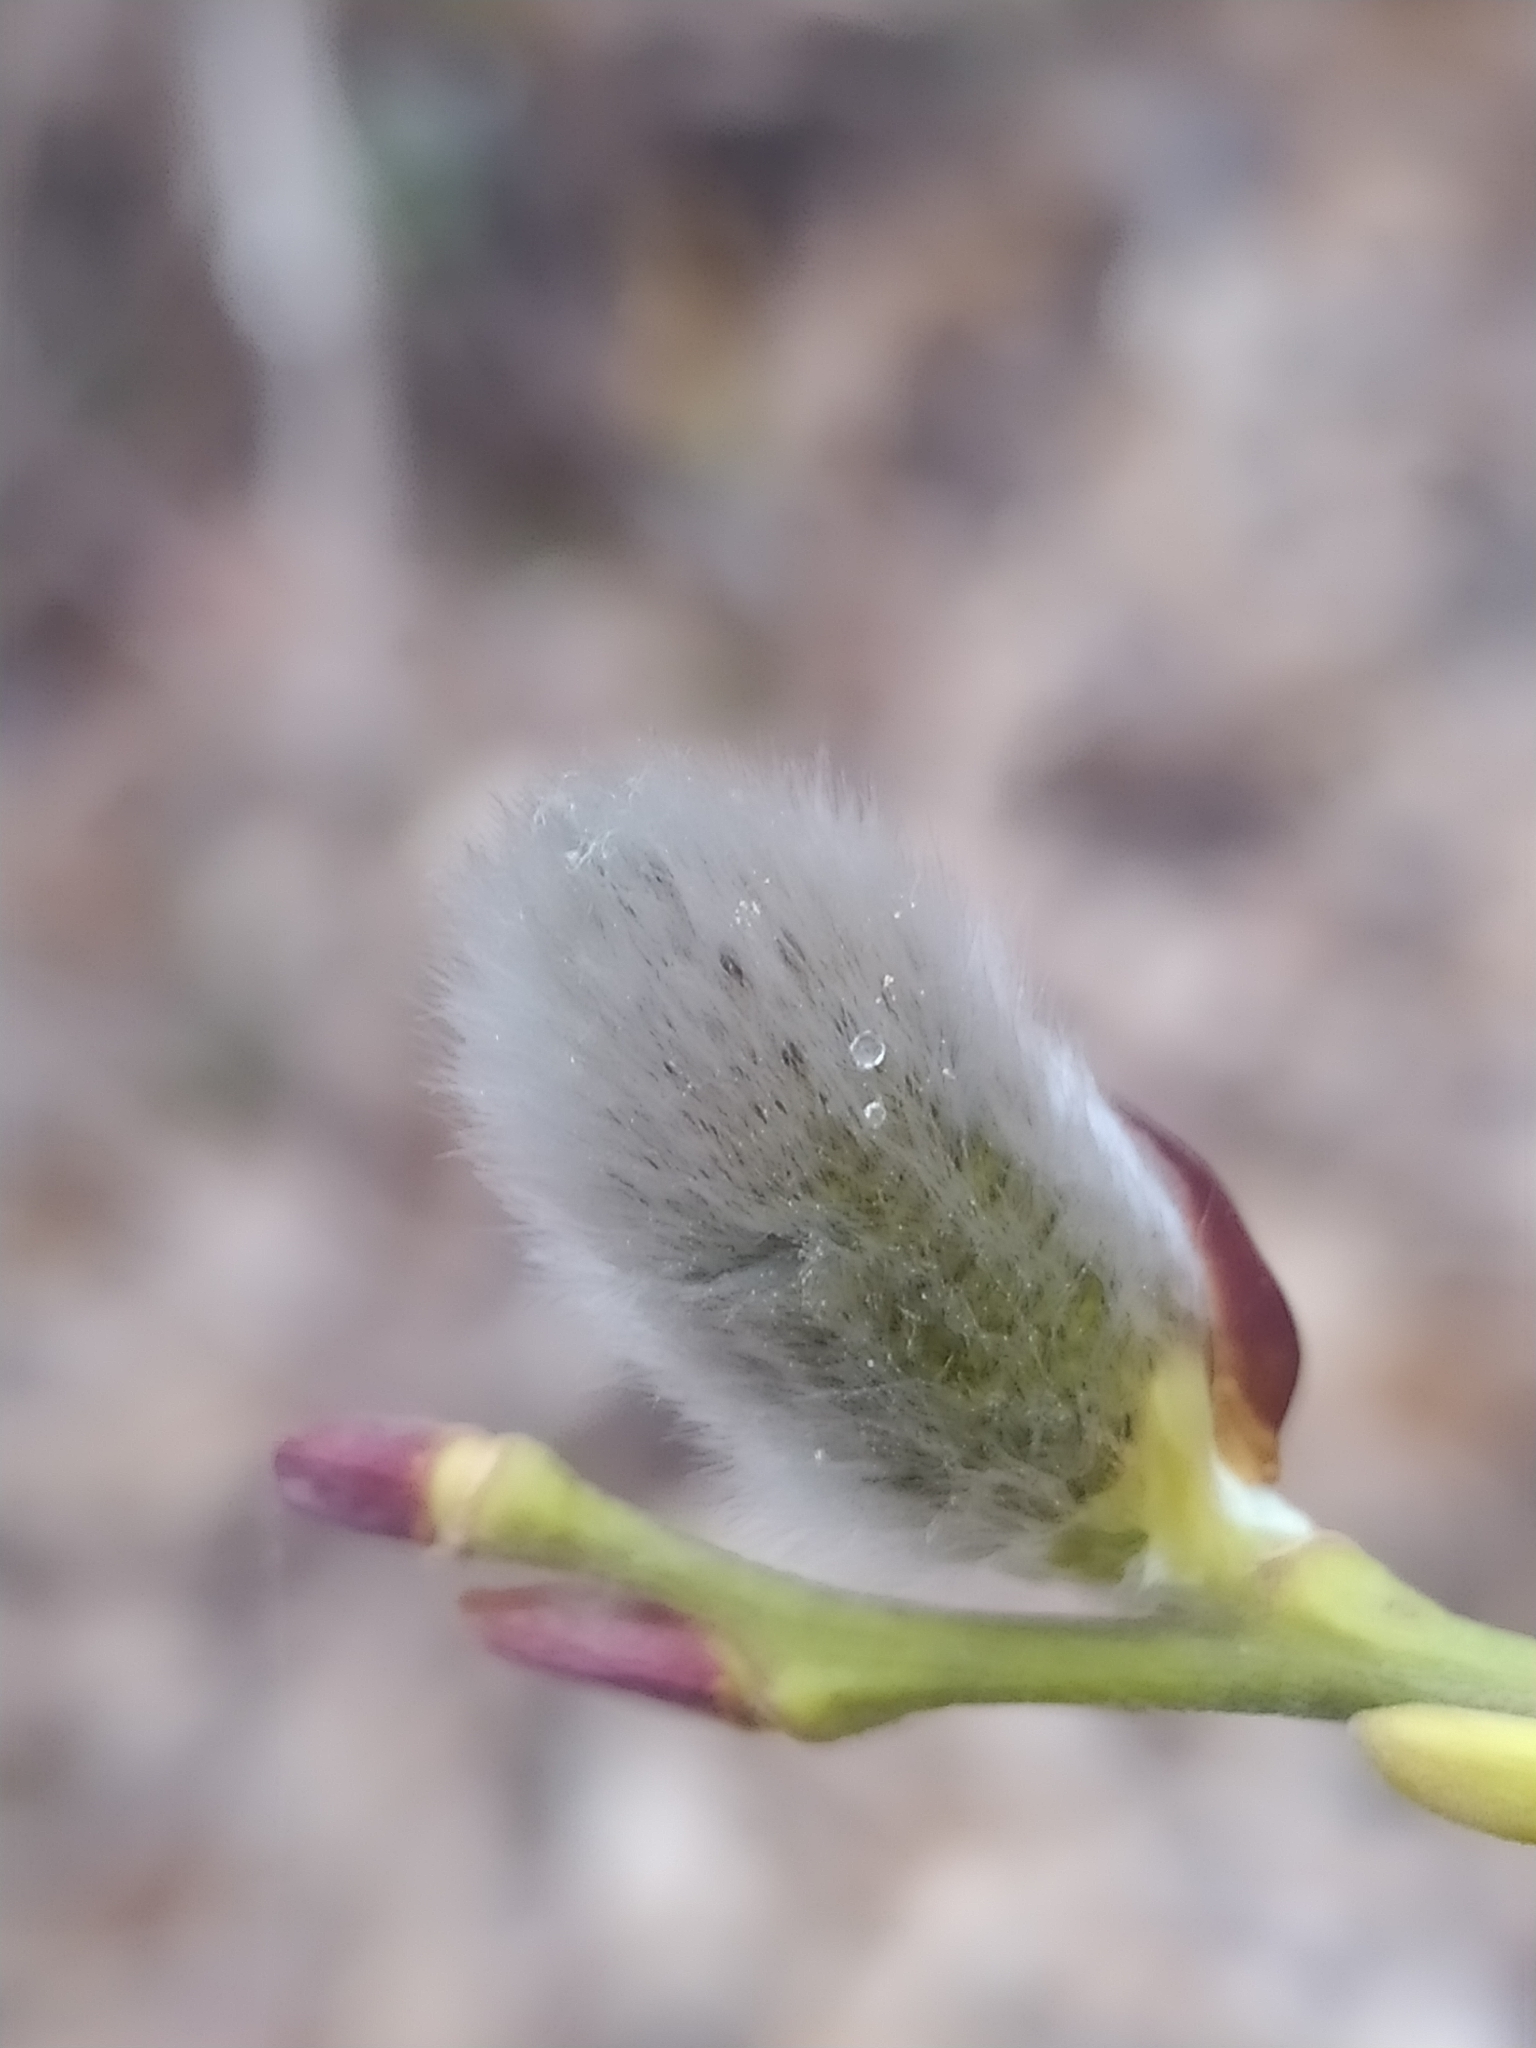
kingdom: Plantae
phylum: Tracheophyta
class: Magnoliopsida
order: Malpighiales
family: Salicaceae
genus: Salix
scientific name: Salix caprea
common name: Goat willow
